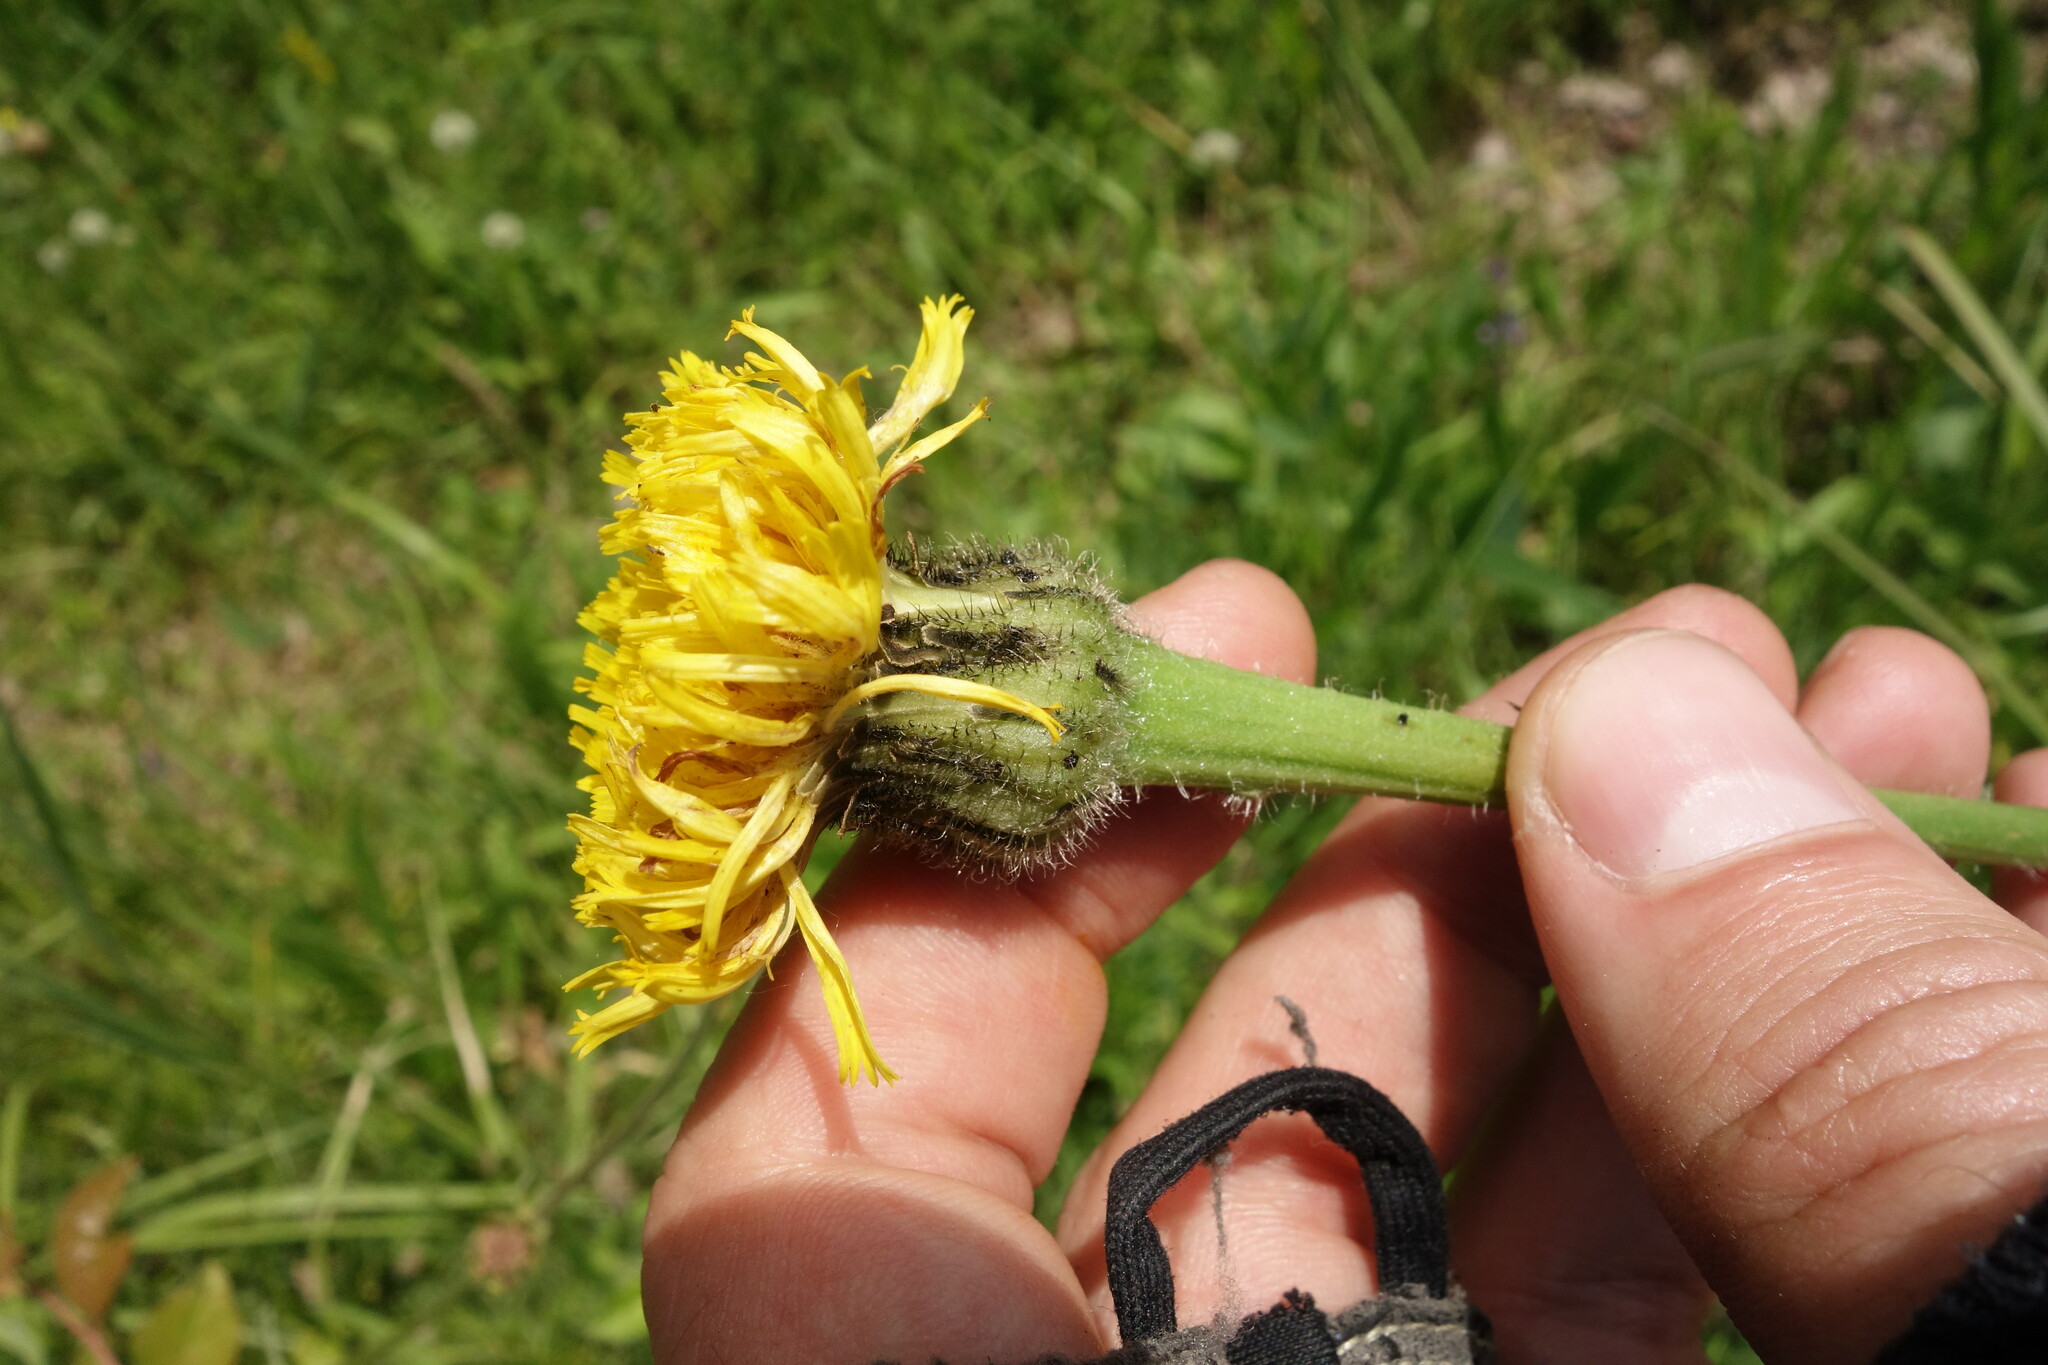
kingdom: Plantae
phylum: Tracheophyta
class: Magnoliopsida
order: Asterales
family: Asteraceae
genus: Trommsdorffia
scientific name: Trommsdorffia maculata
